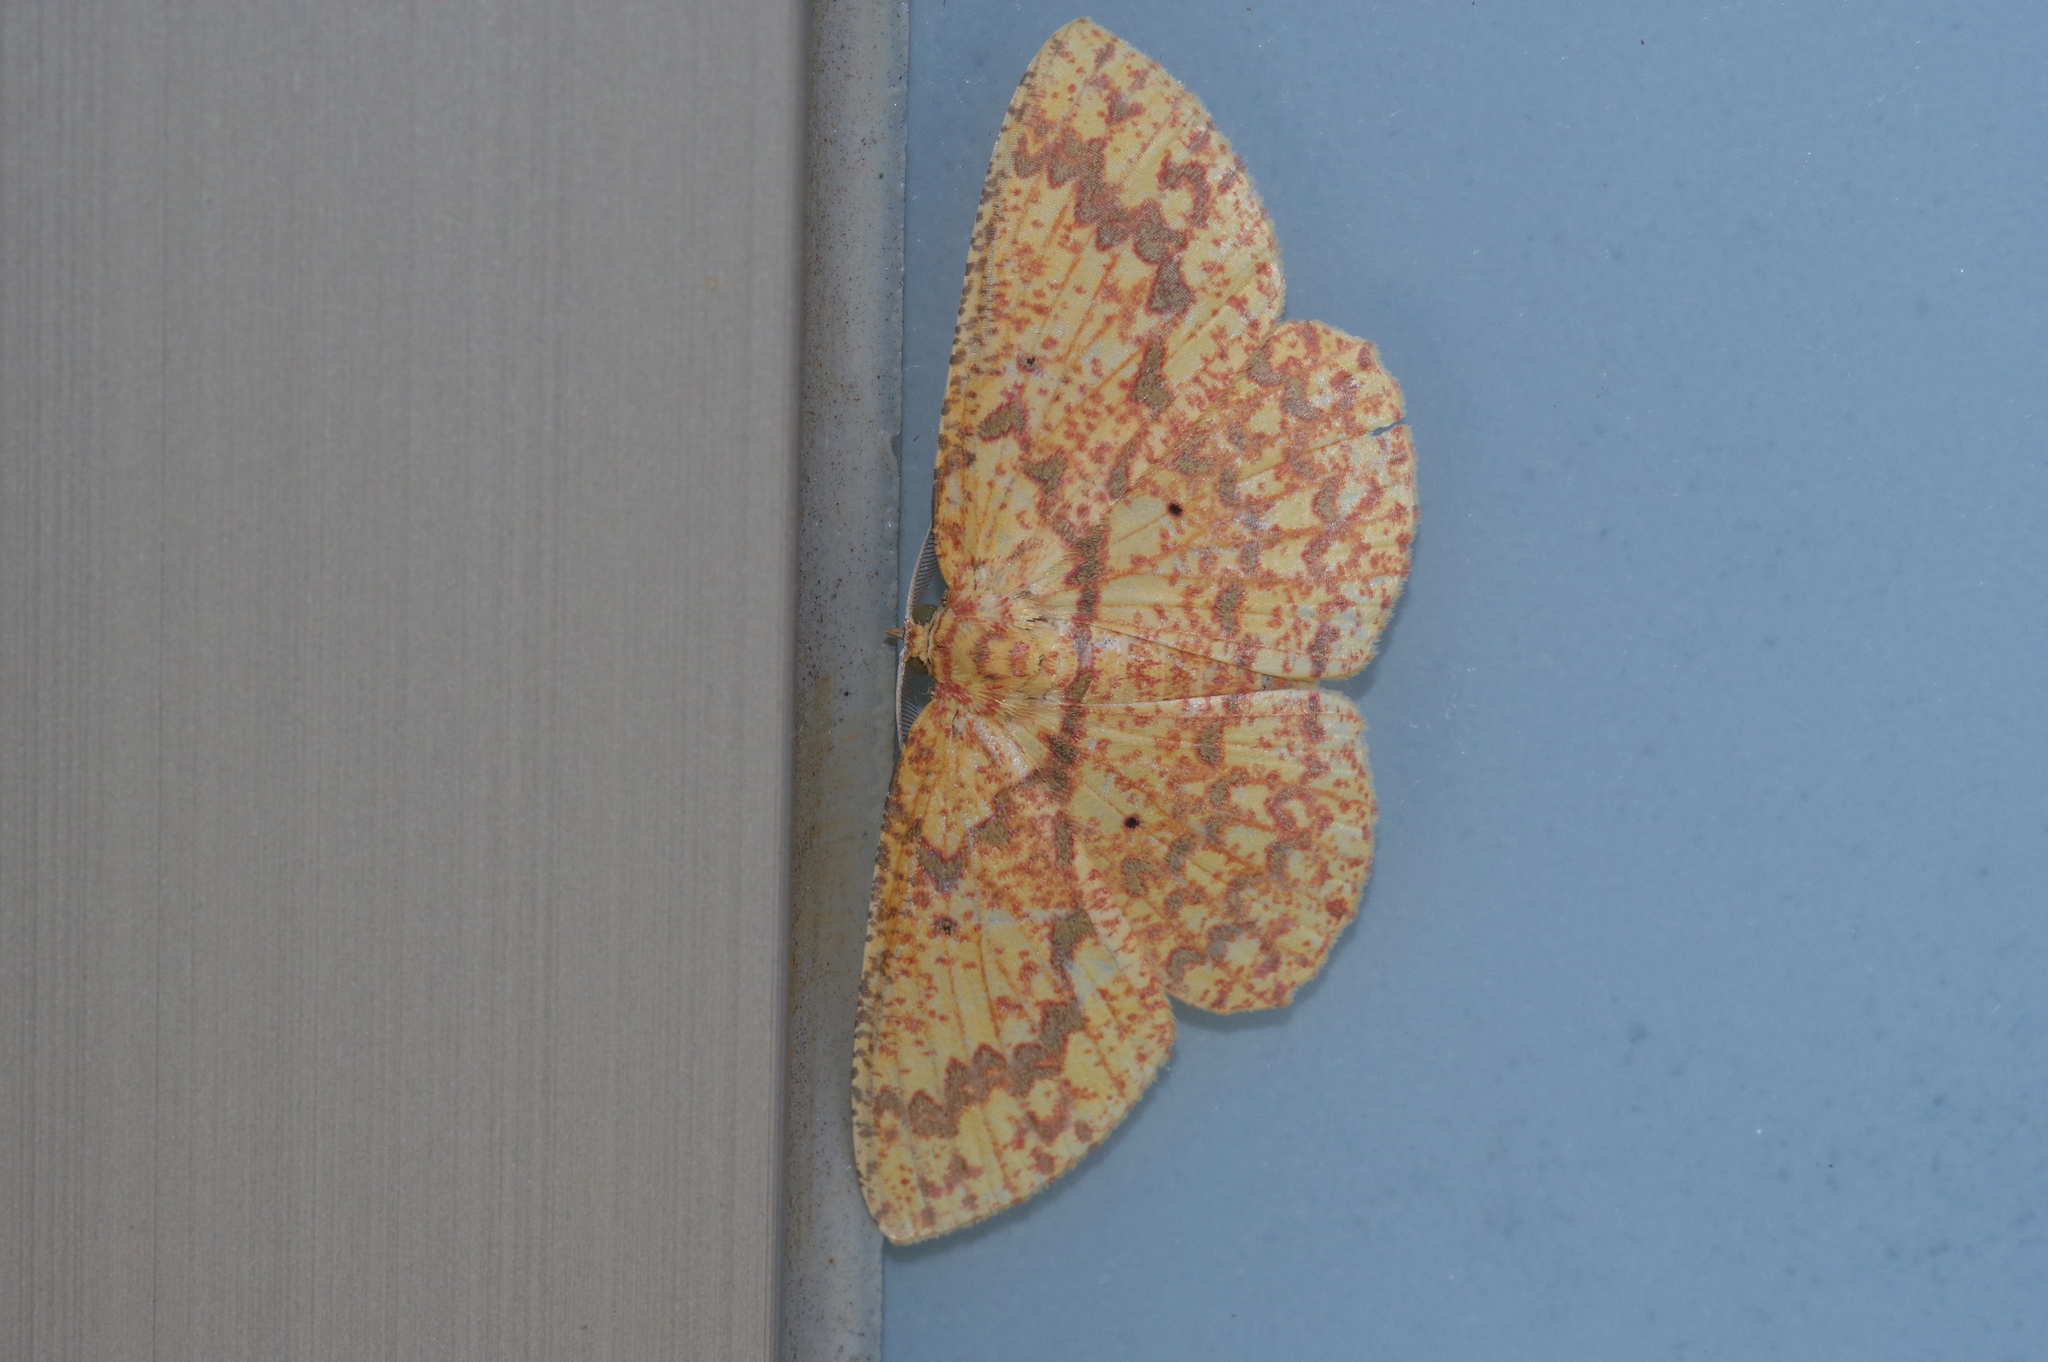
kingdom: Animalia
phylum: Arthropoda
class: Insecta
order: Lepidoptera
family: Geometridae
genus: Borbacha
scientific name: Borbacha pardaria
